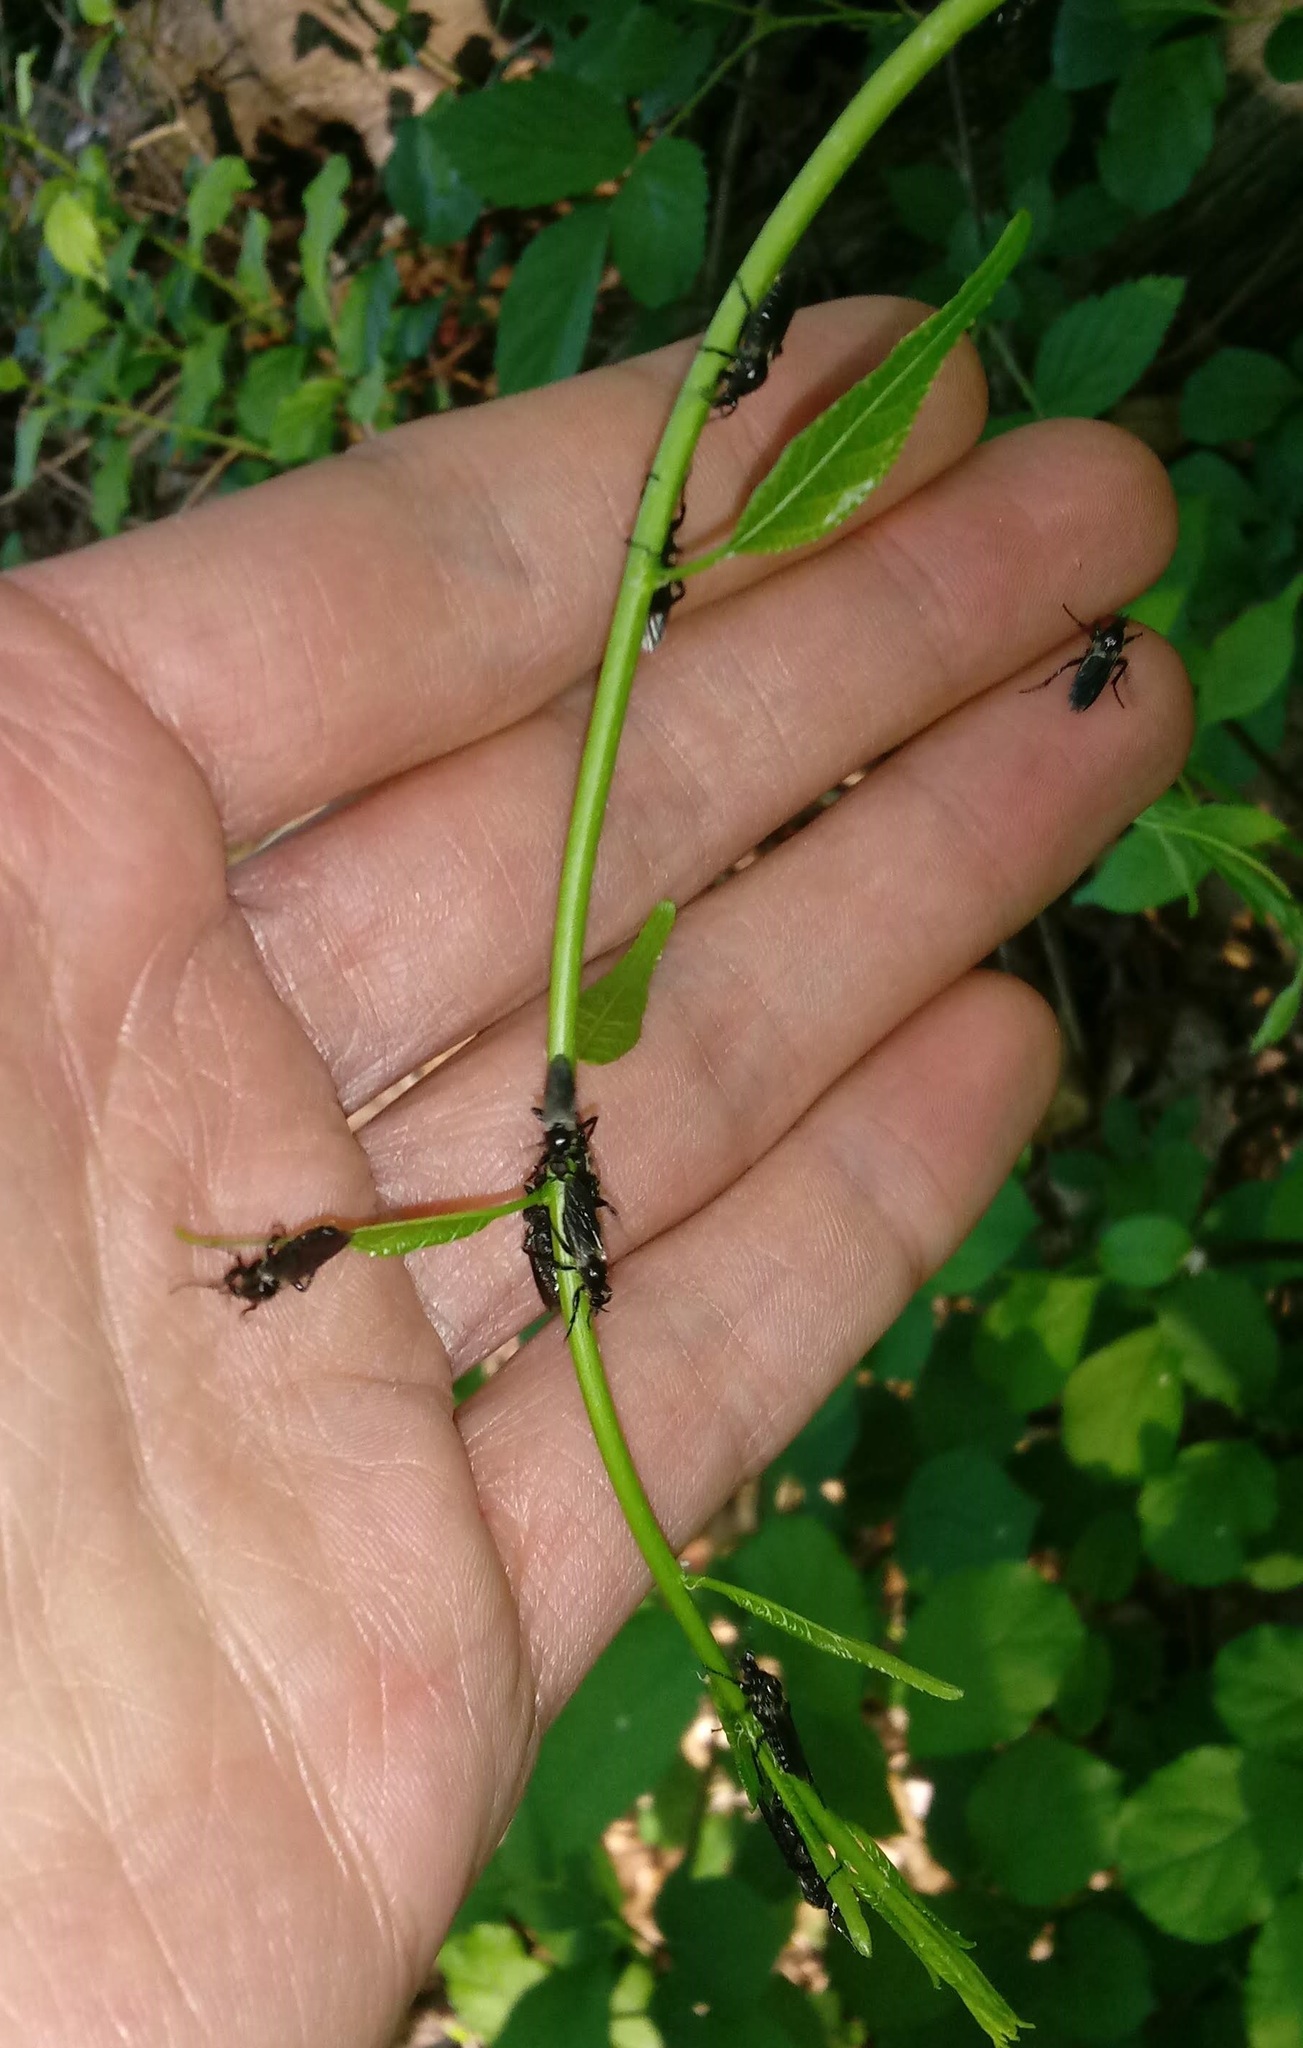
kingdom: Animalia
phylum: Arthropoda
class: Insecta
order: Diptera
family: Bibionidae
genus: Bibio
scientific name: Bibio albipennis
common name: White-winged march fly
